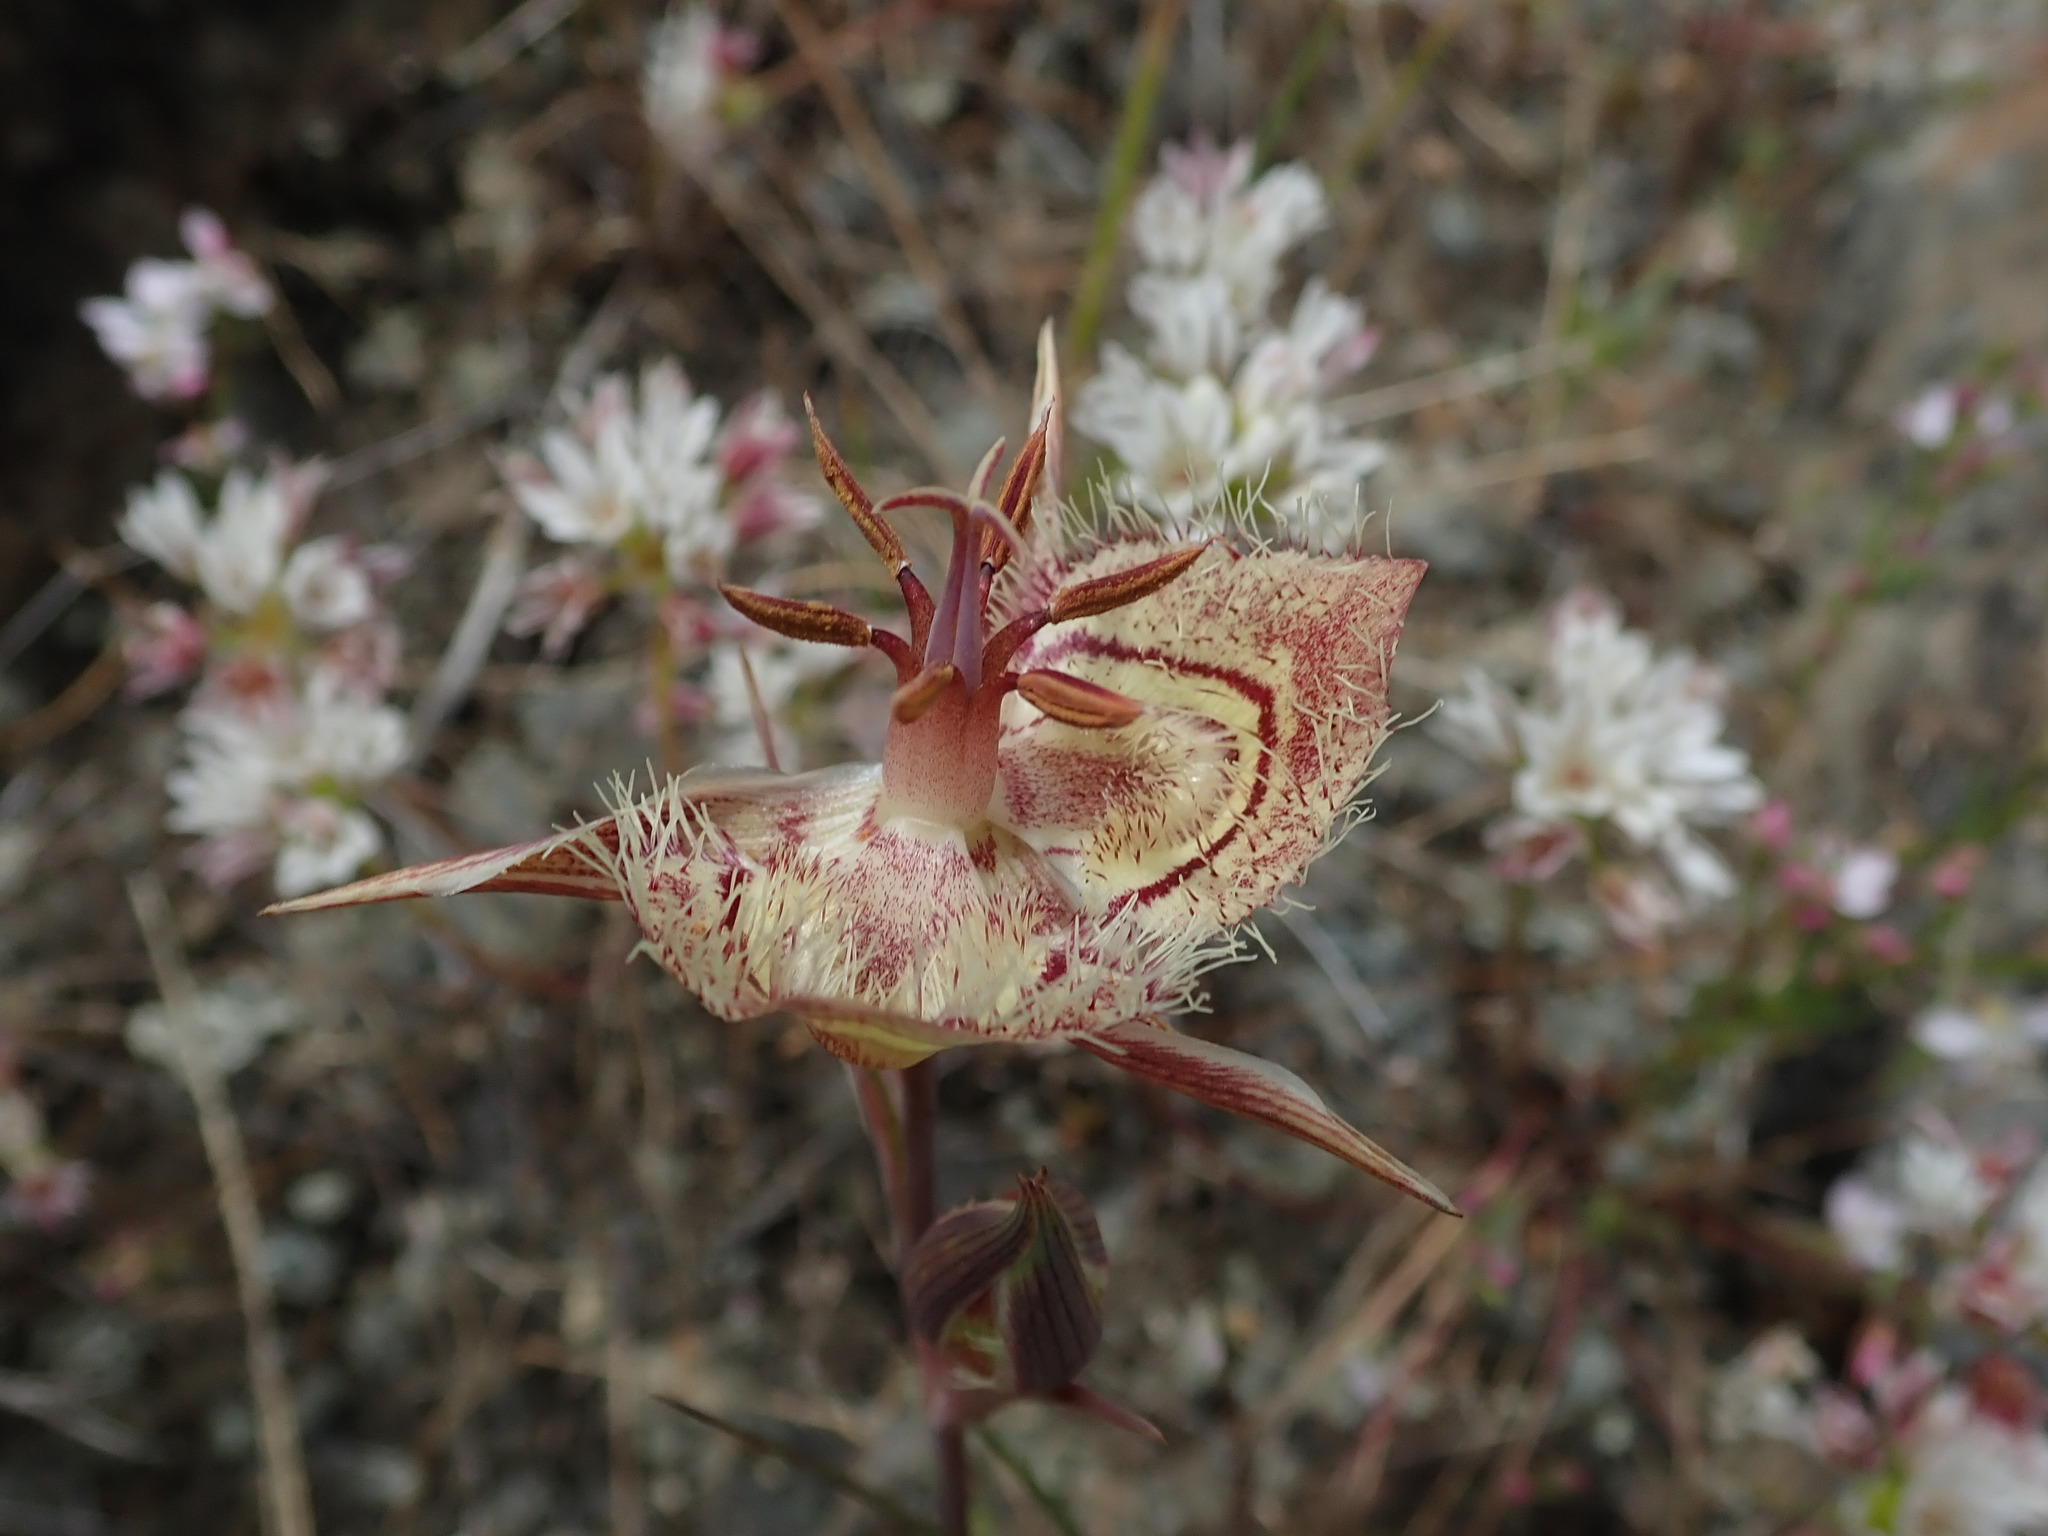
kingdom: Plantae
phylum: Tracheophyta
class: Liliopsida
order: Liliales
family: Liliaceae
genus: Calochortus
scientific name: Calochortus tiburonensis
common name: Tiburon mariposa-lily
